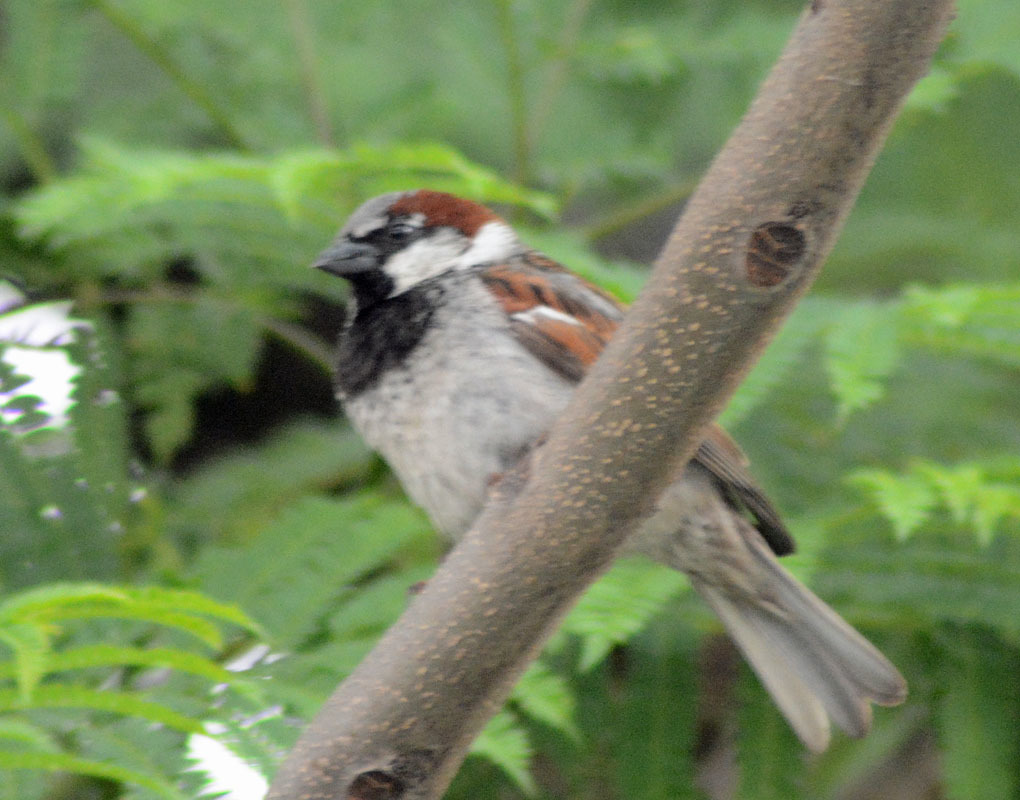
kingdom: Animalia
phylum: Chordata
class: Aves
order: Passeriformes
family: Passeridae
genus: Passer
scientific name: Passer domesticus
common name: House sparrow
